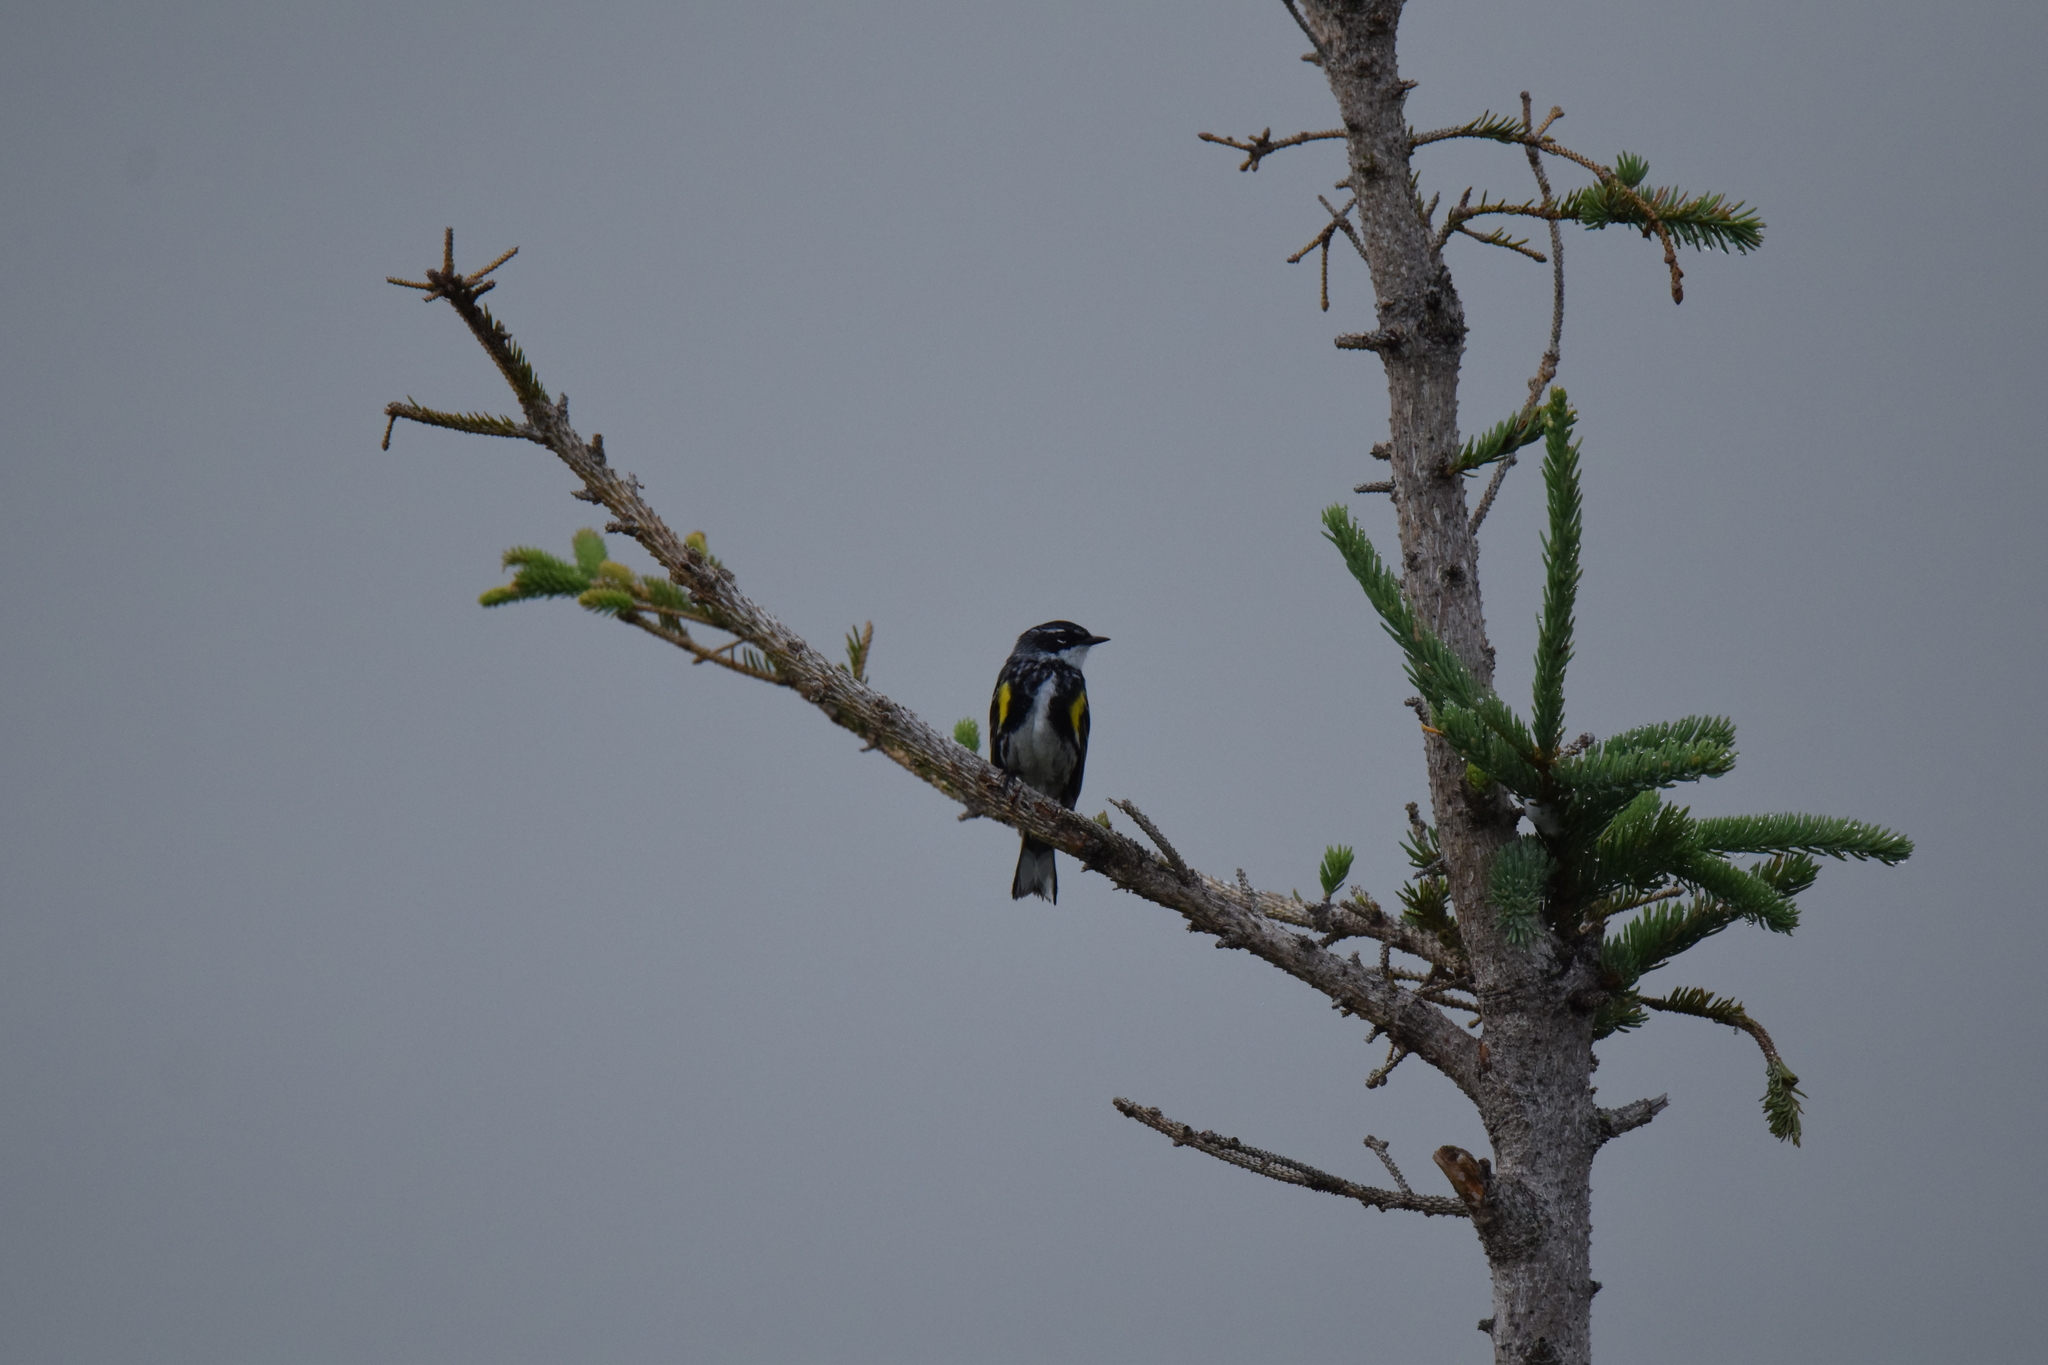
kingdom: Animalia
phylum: Chordata
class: Aves
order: Passeriformes
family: Parulidae
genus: Setophaga
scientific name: Setophaga coronata
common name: Myrtle warbler
